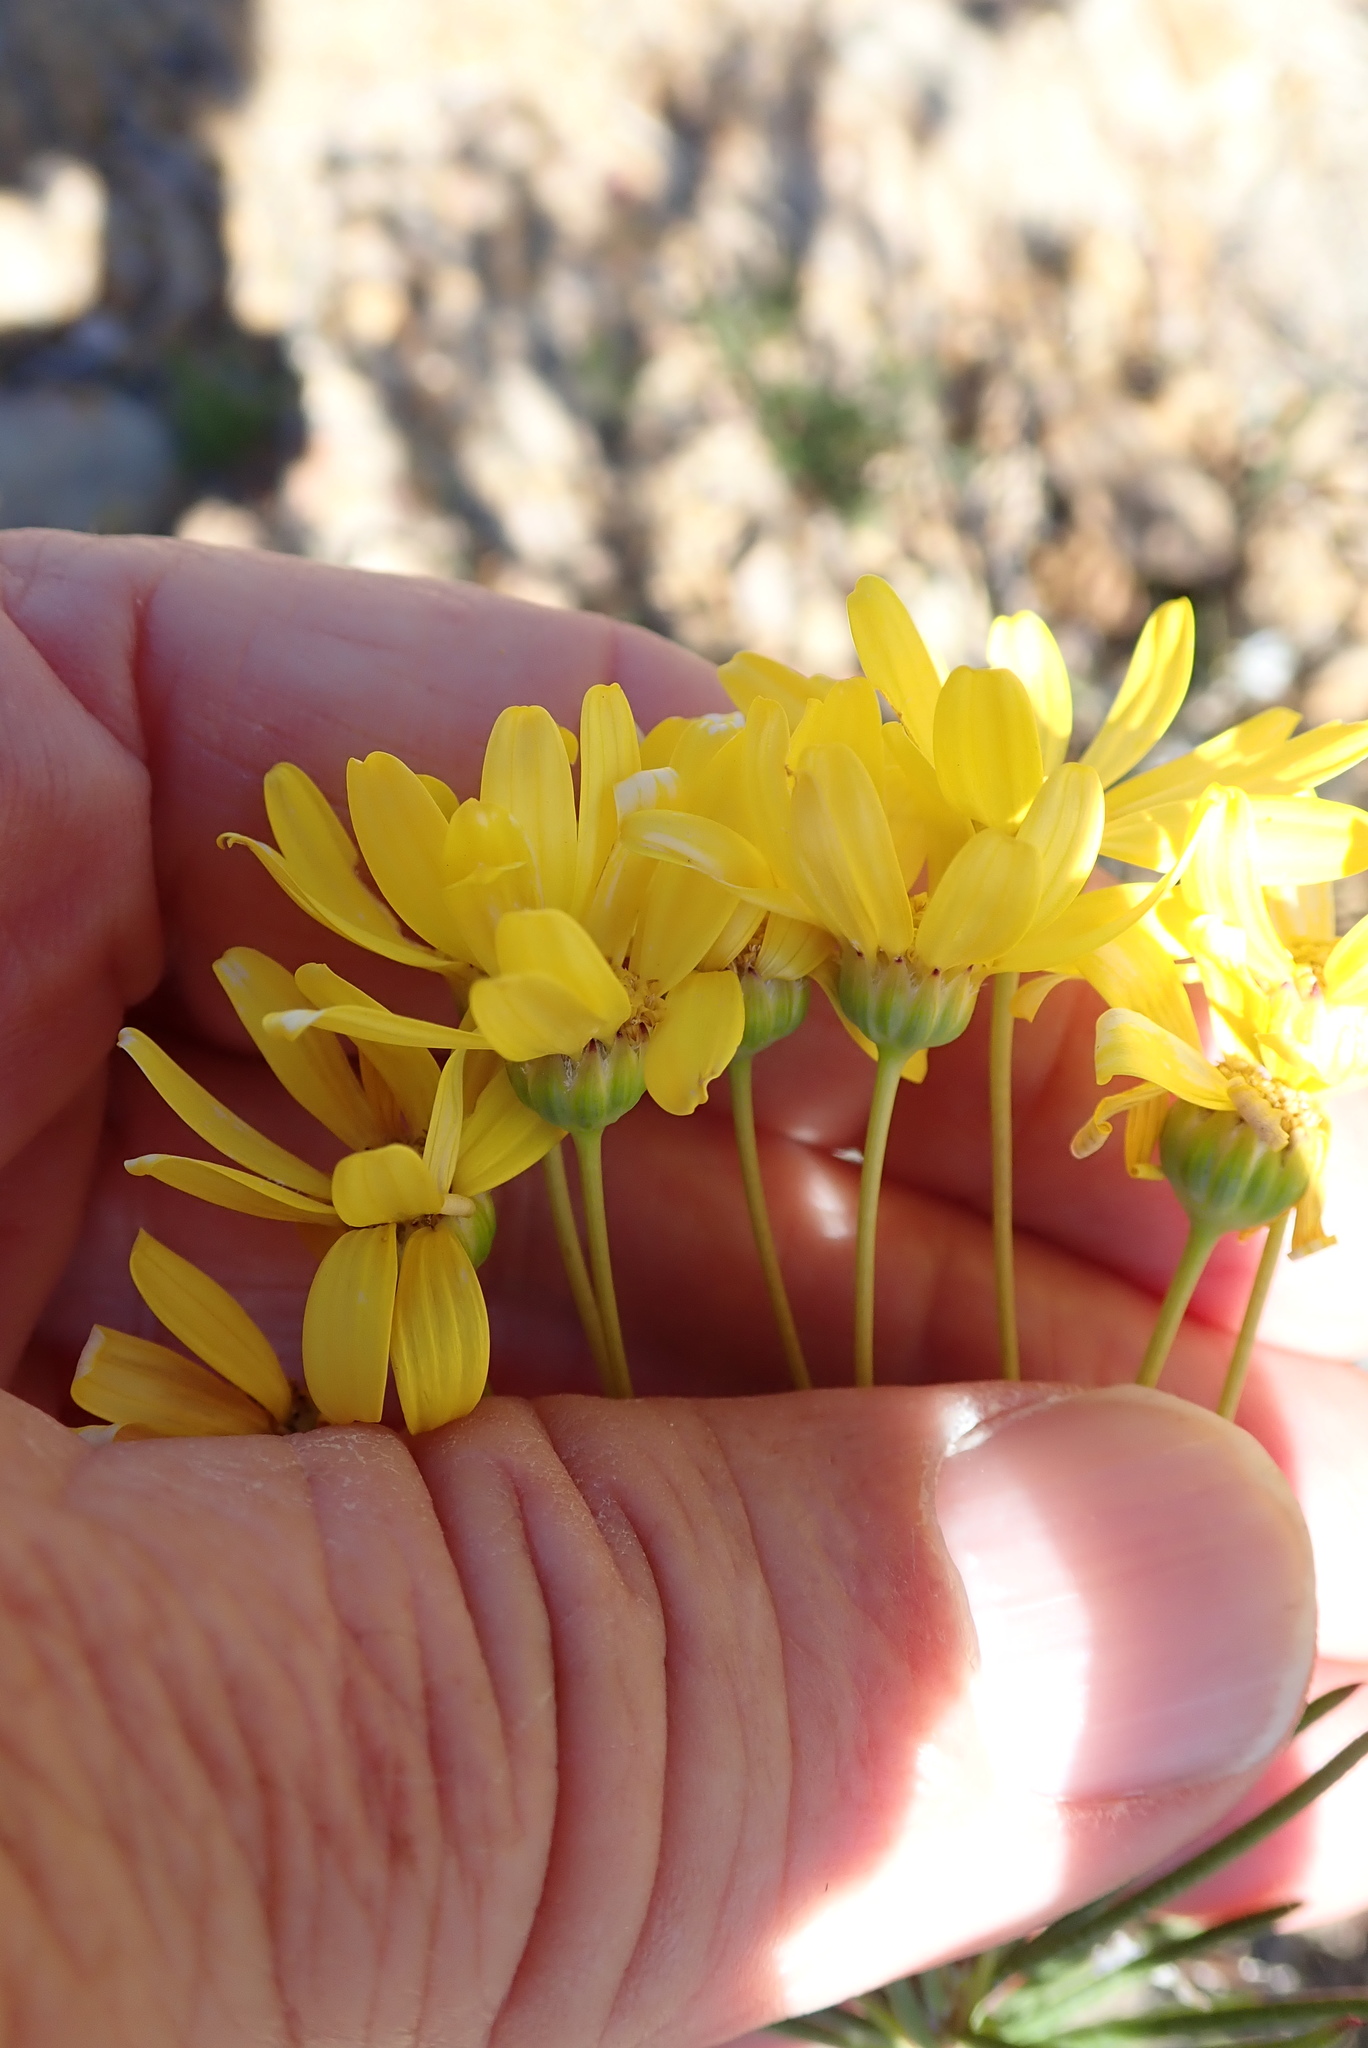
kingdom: Plantae
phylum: Tracheophyta
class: Magnoliopsida
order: Asterales
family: Asteraceae
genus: Euryops
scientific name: Euryops tenuissimus
